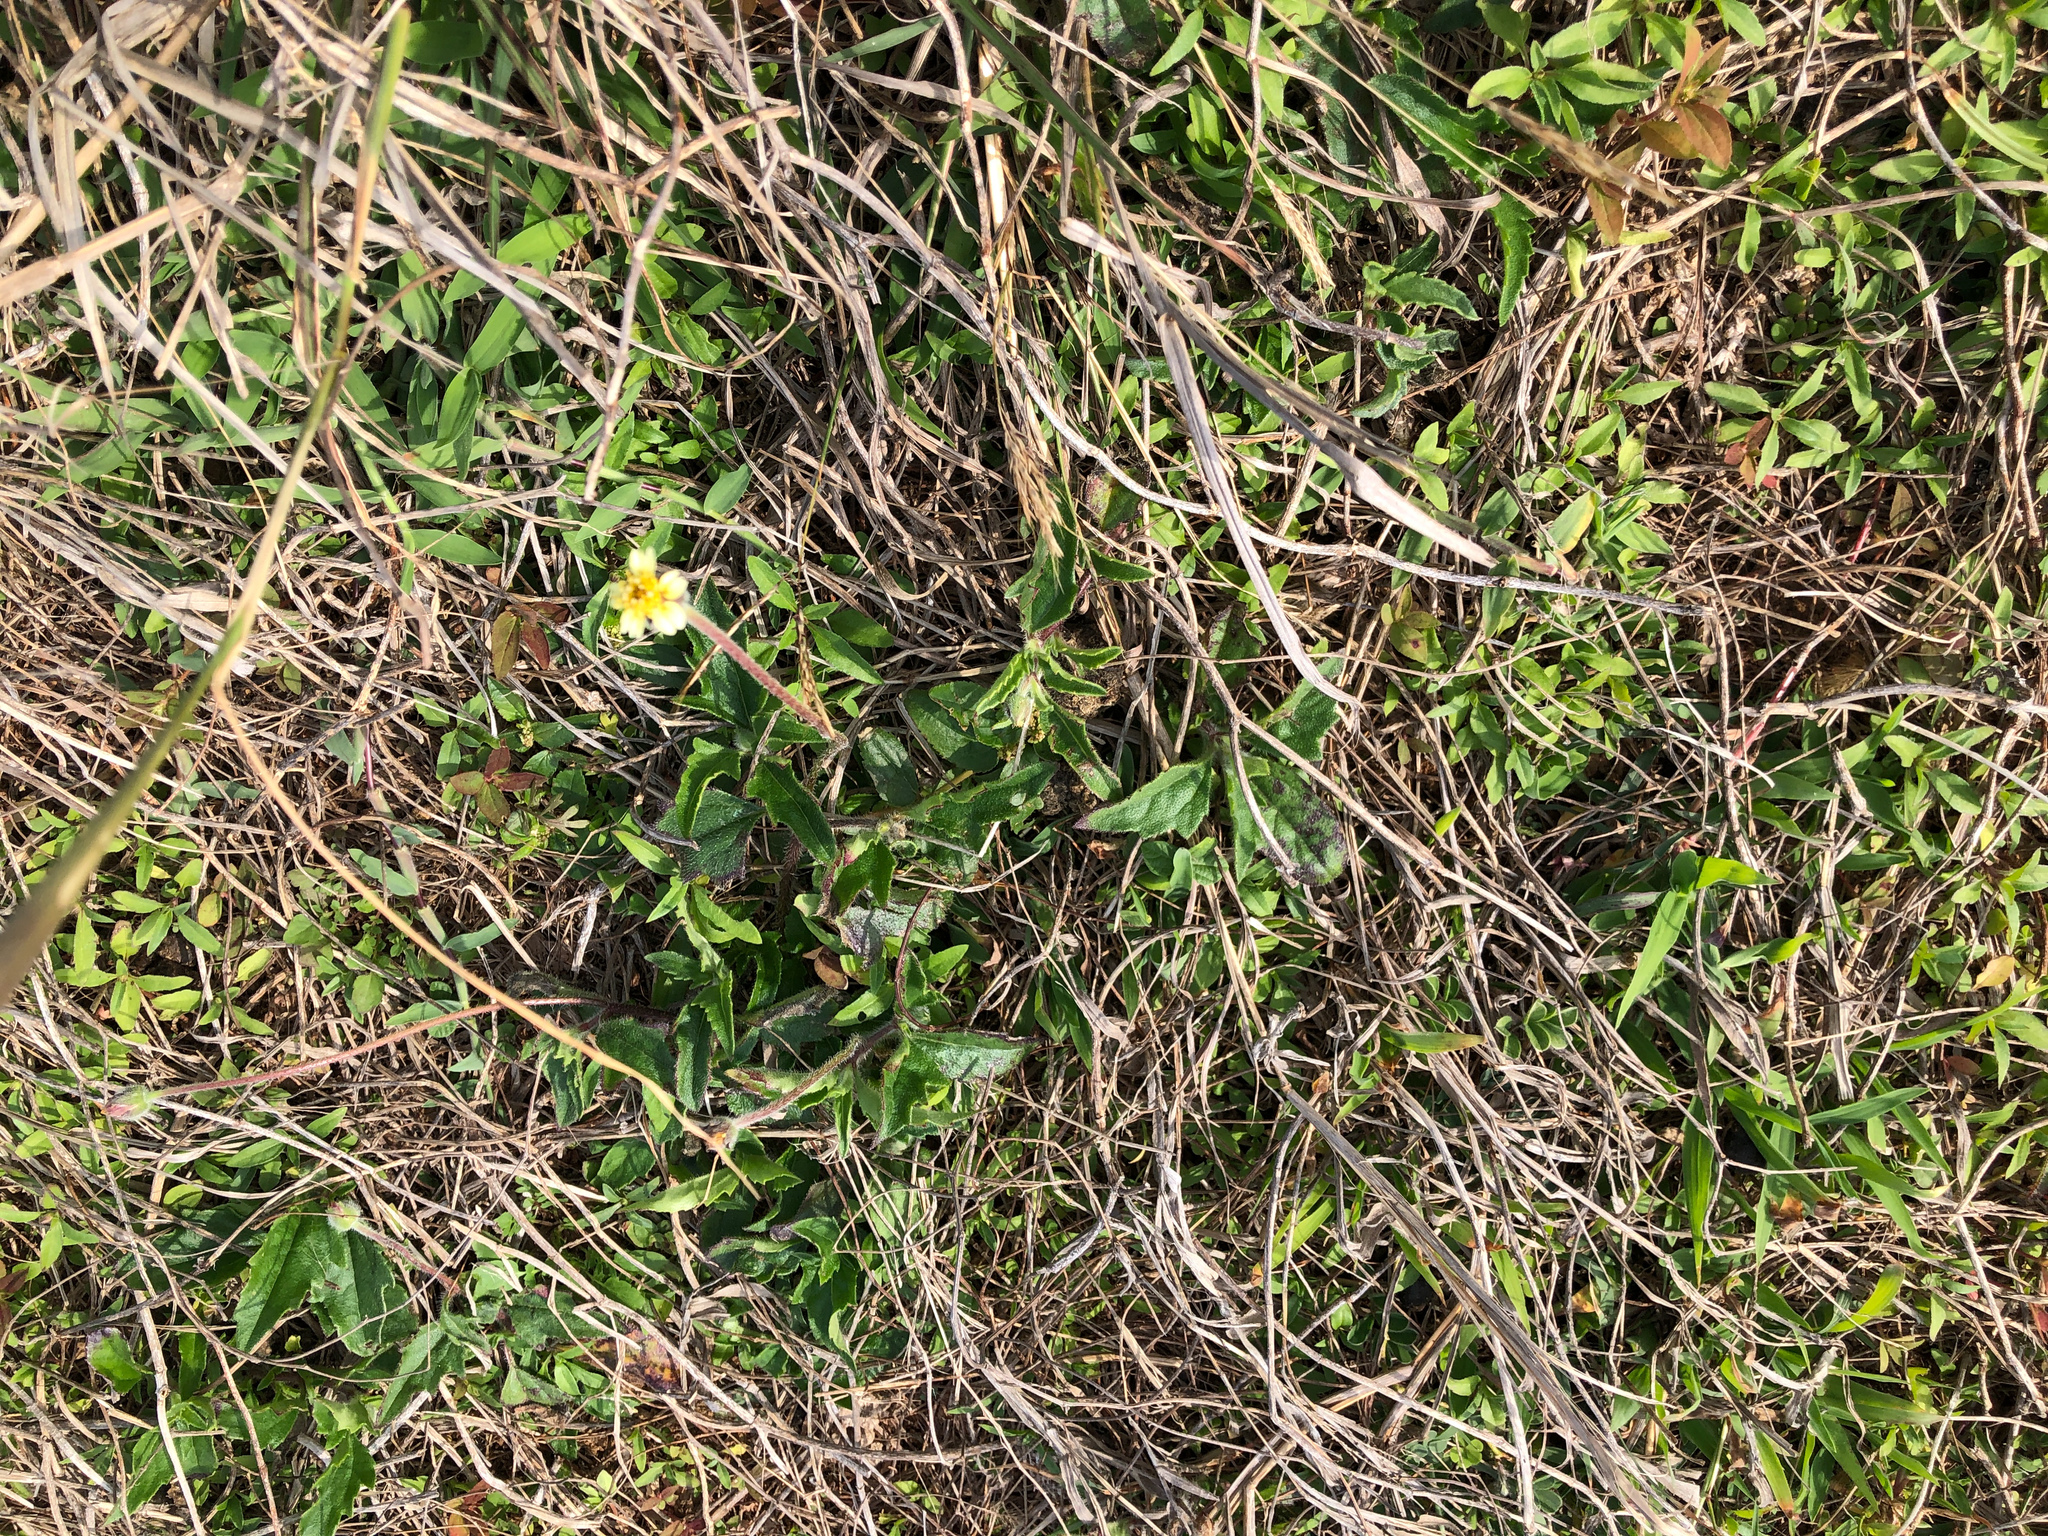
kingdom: Plantae
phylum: Tracheophyta
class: Magnoliopsida
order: Asterales
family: Asteraceae
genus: Tridax
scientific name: Tridax procumbens
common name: Coatbuttons
